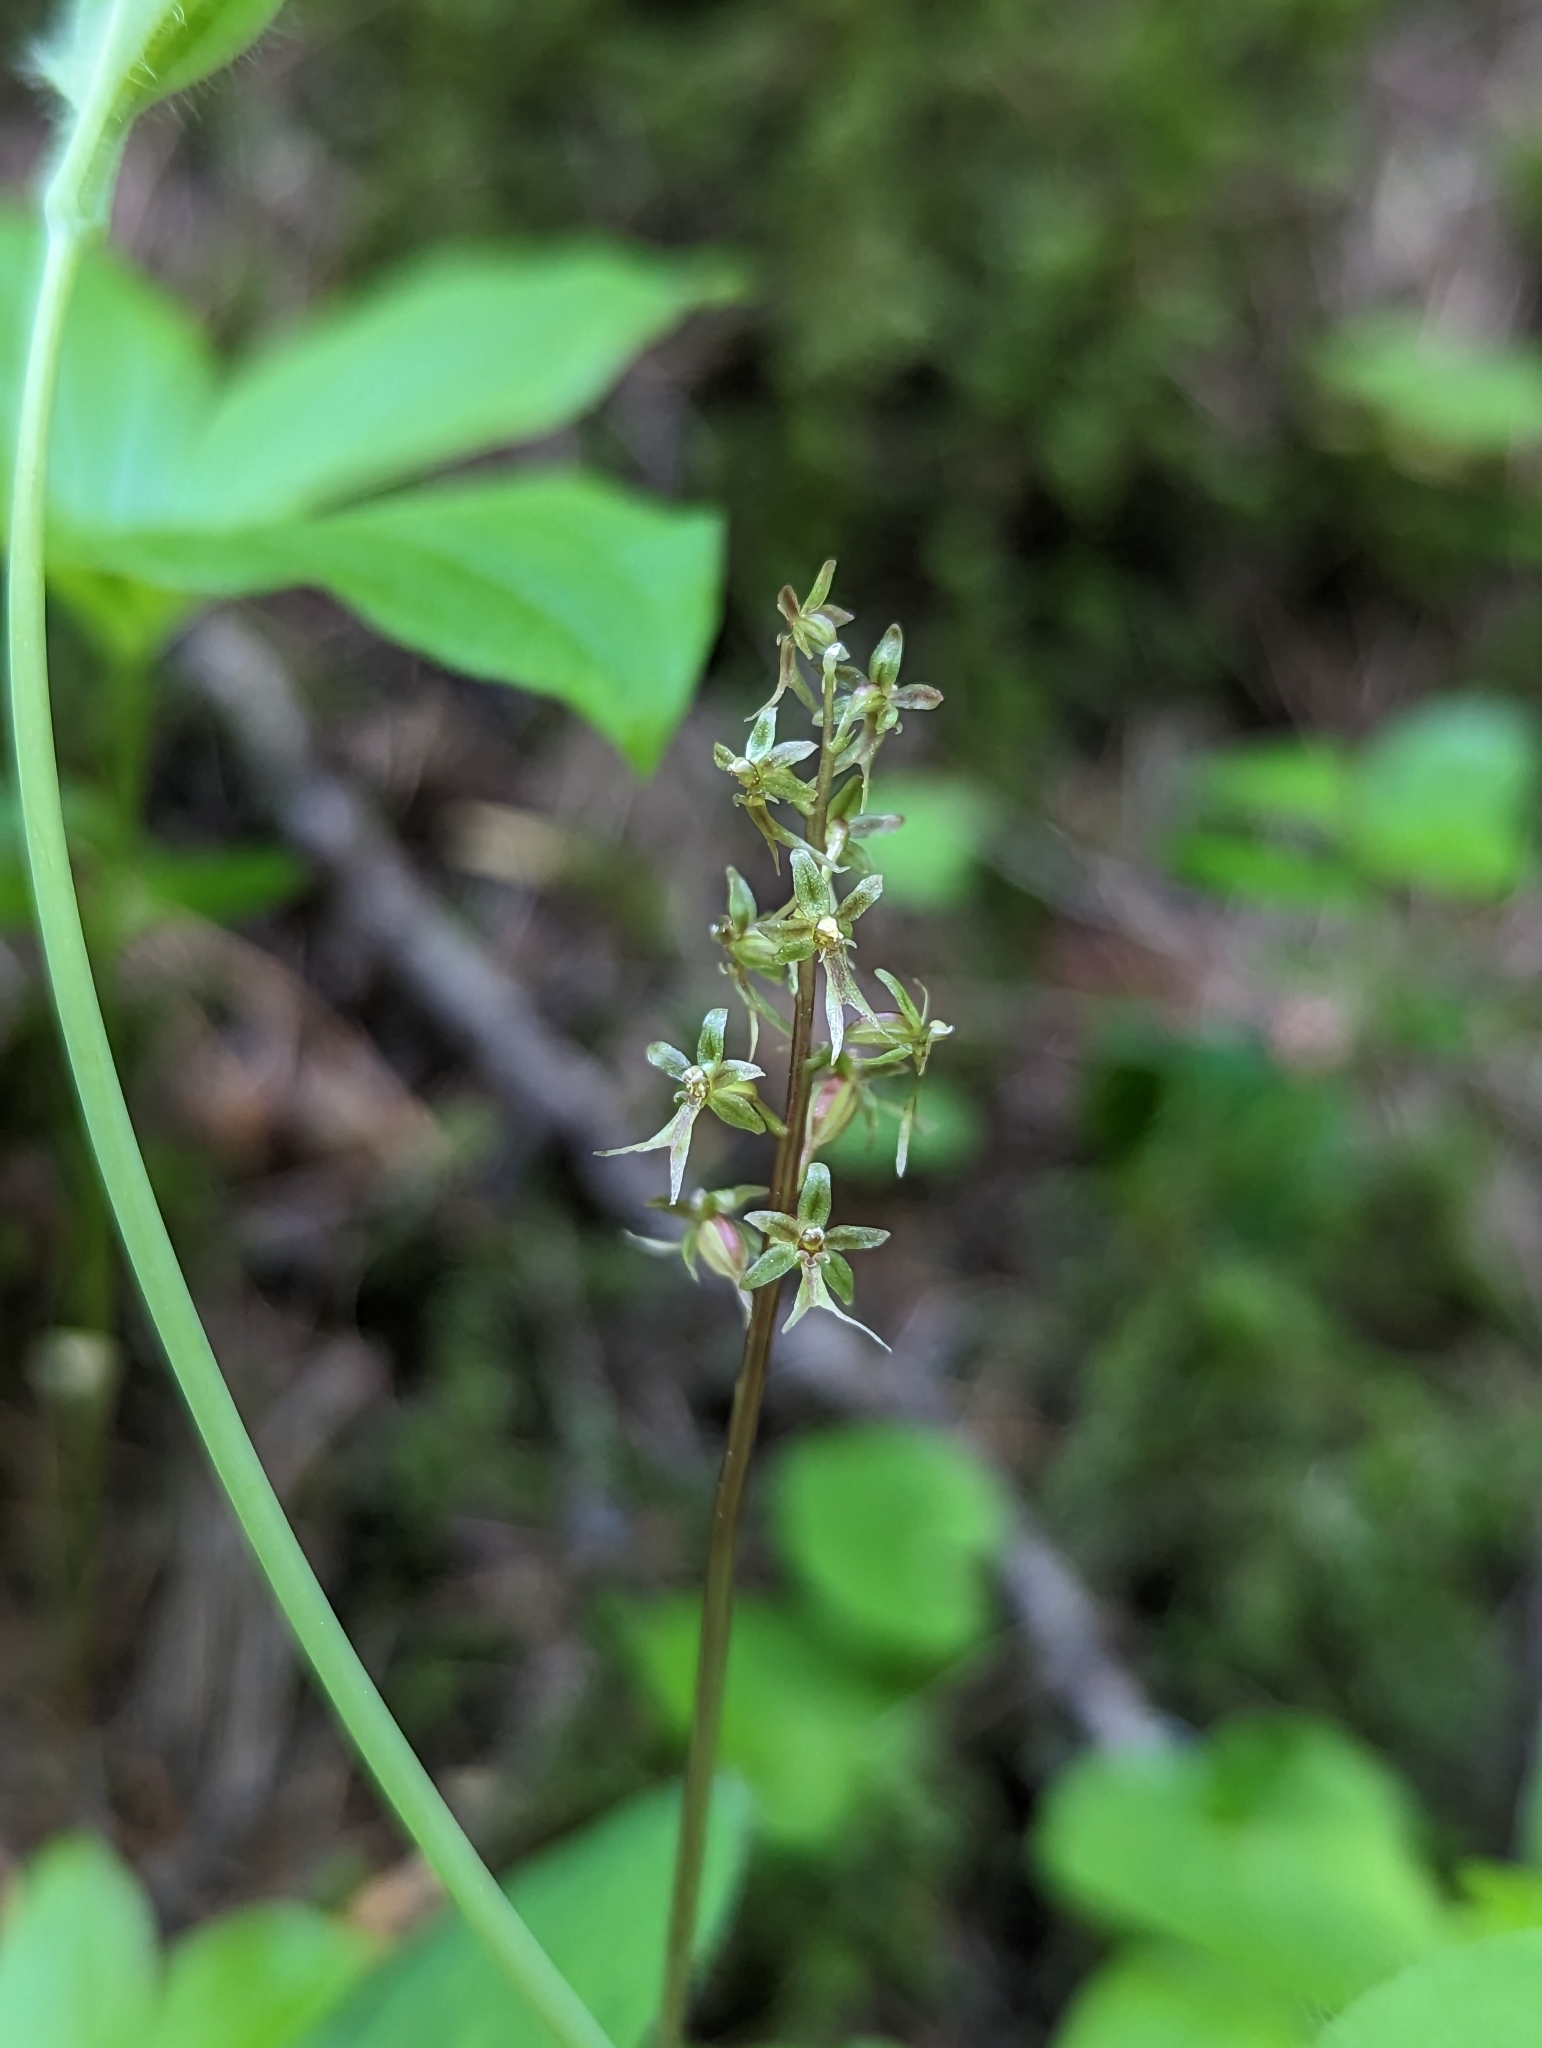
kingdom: Plantae
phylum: Tracheophyta
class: Liliopsida
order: Asparagales
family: Orchidaceae
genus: Neottia
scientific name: Neottia cordata
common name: Lesser twayblade
